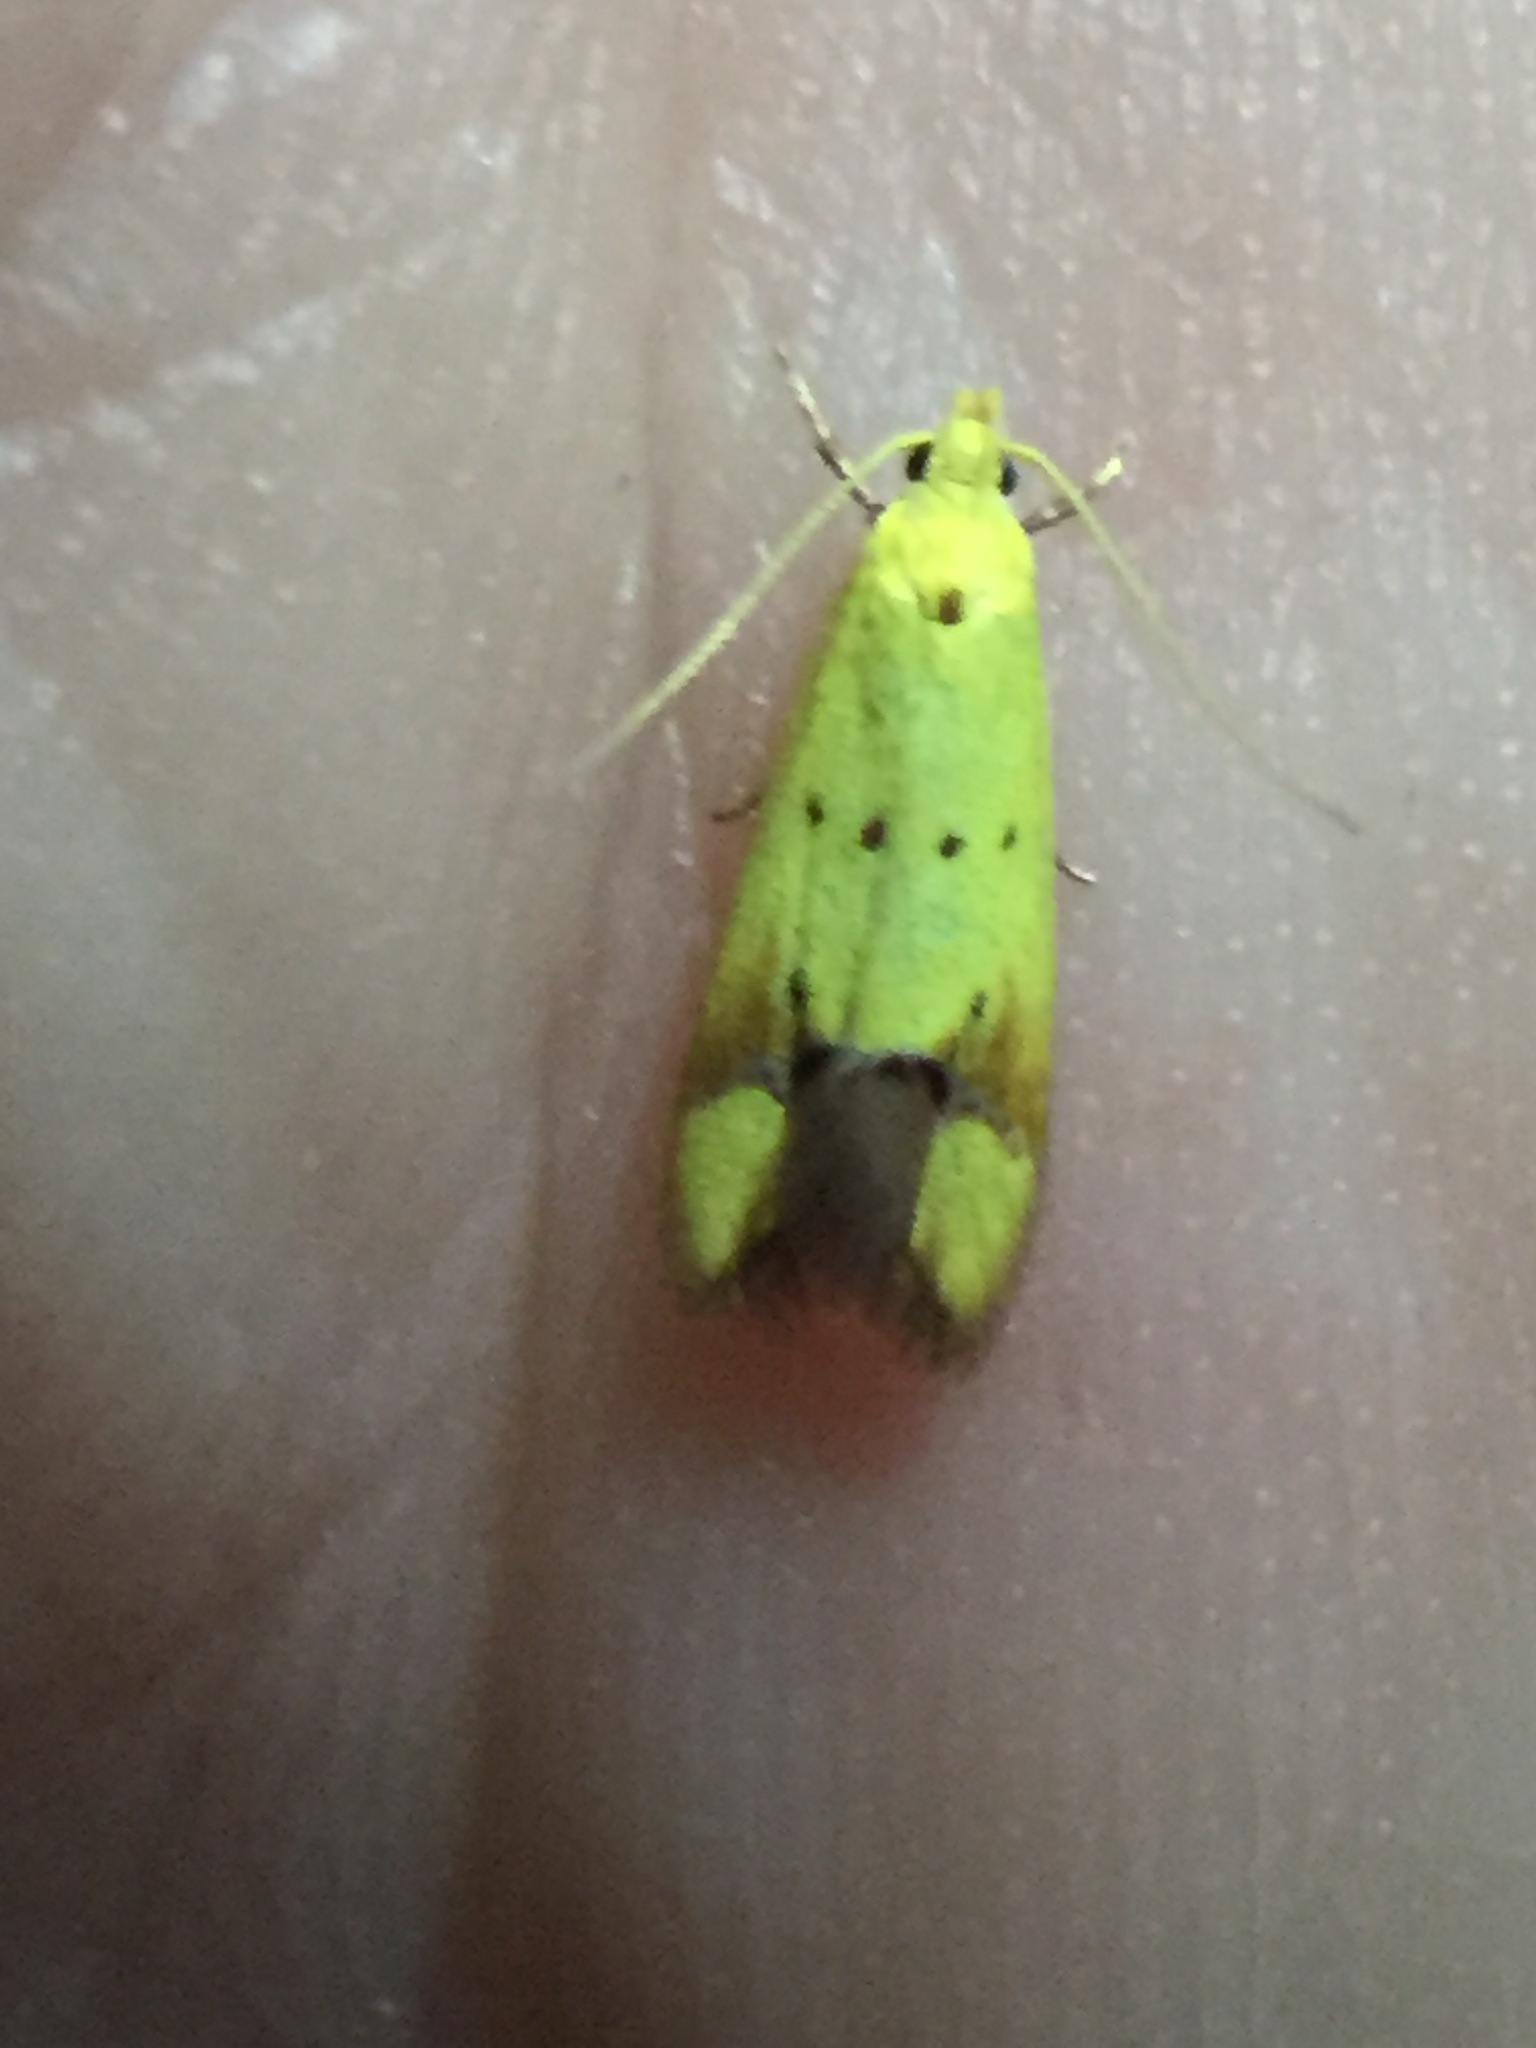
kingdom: Animalia
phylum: Arthropoda
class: Insecta
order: Lepidoptera
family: Oecophoridae
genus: Gymnobathra
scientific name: Gymnobathra flavidella
